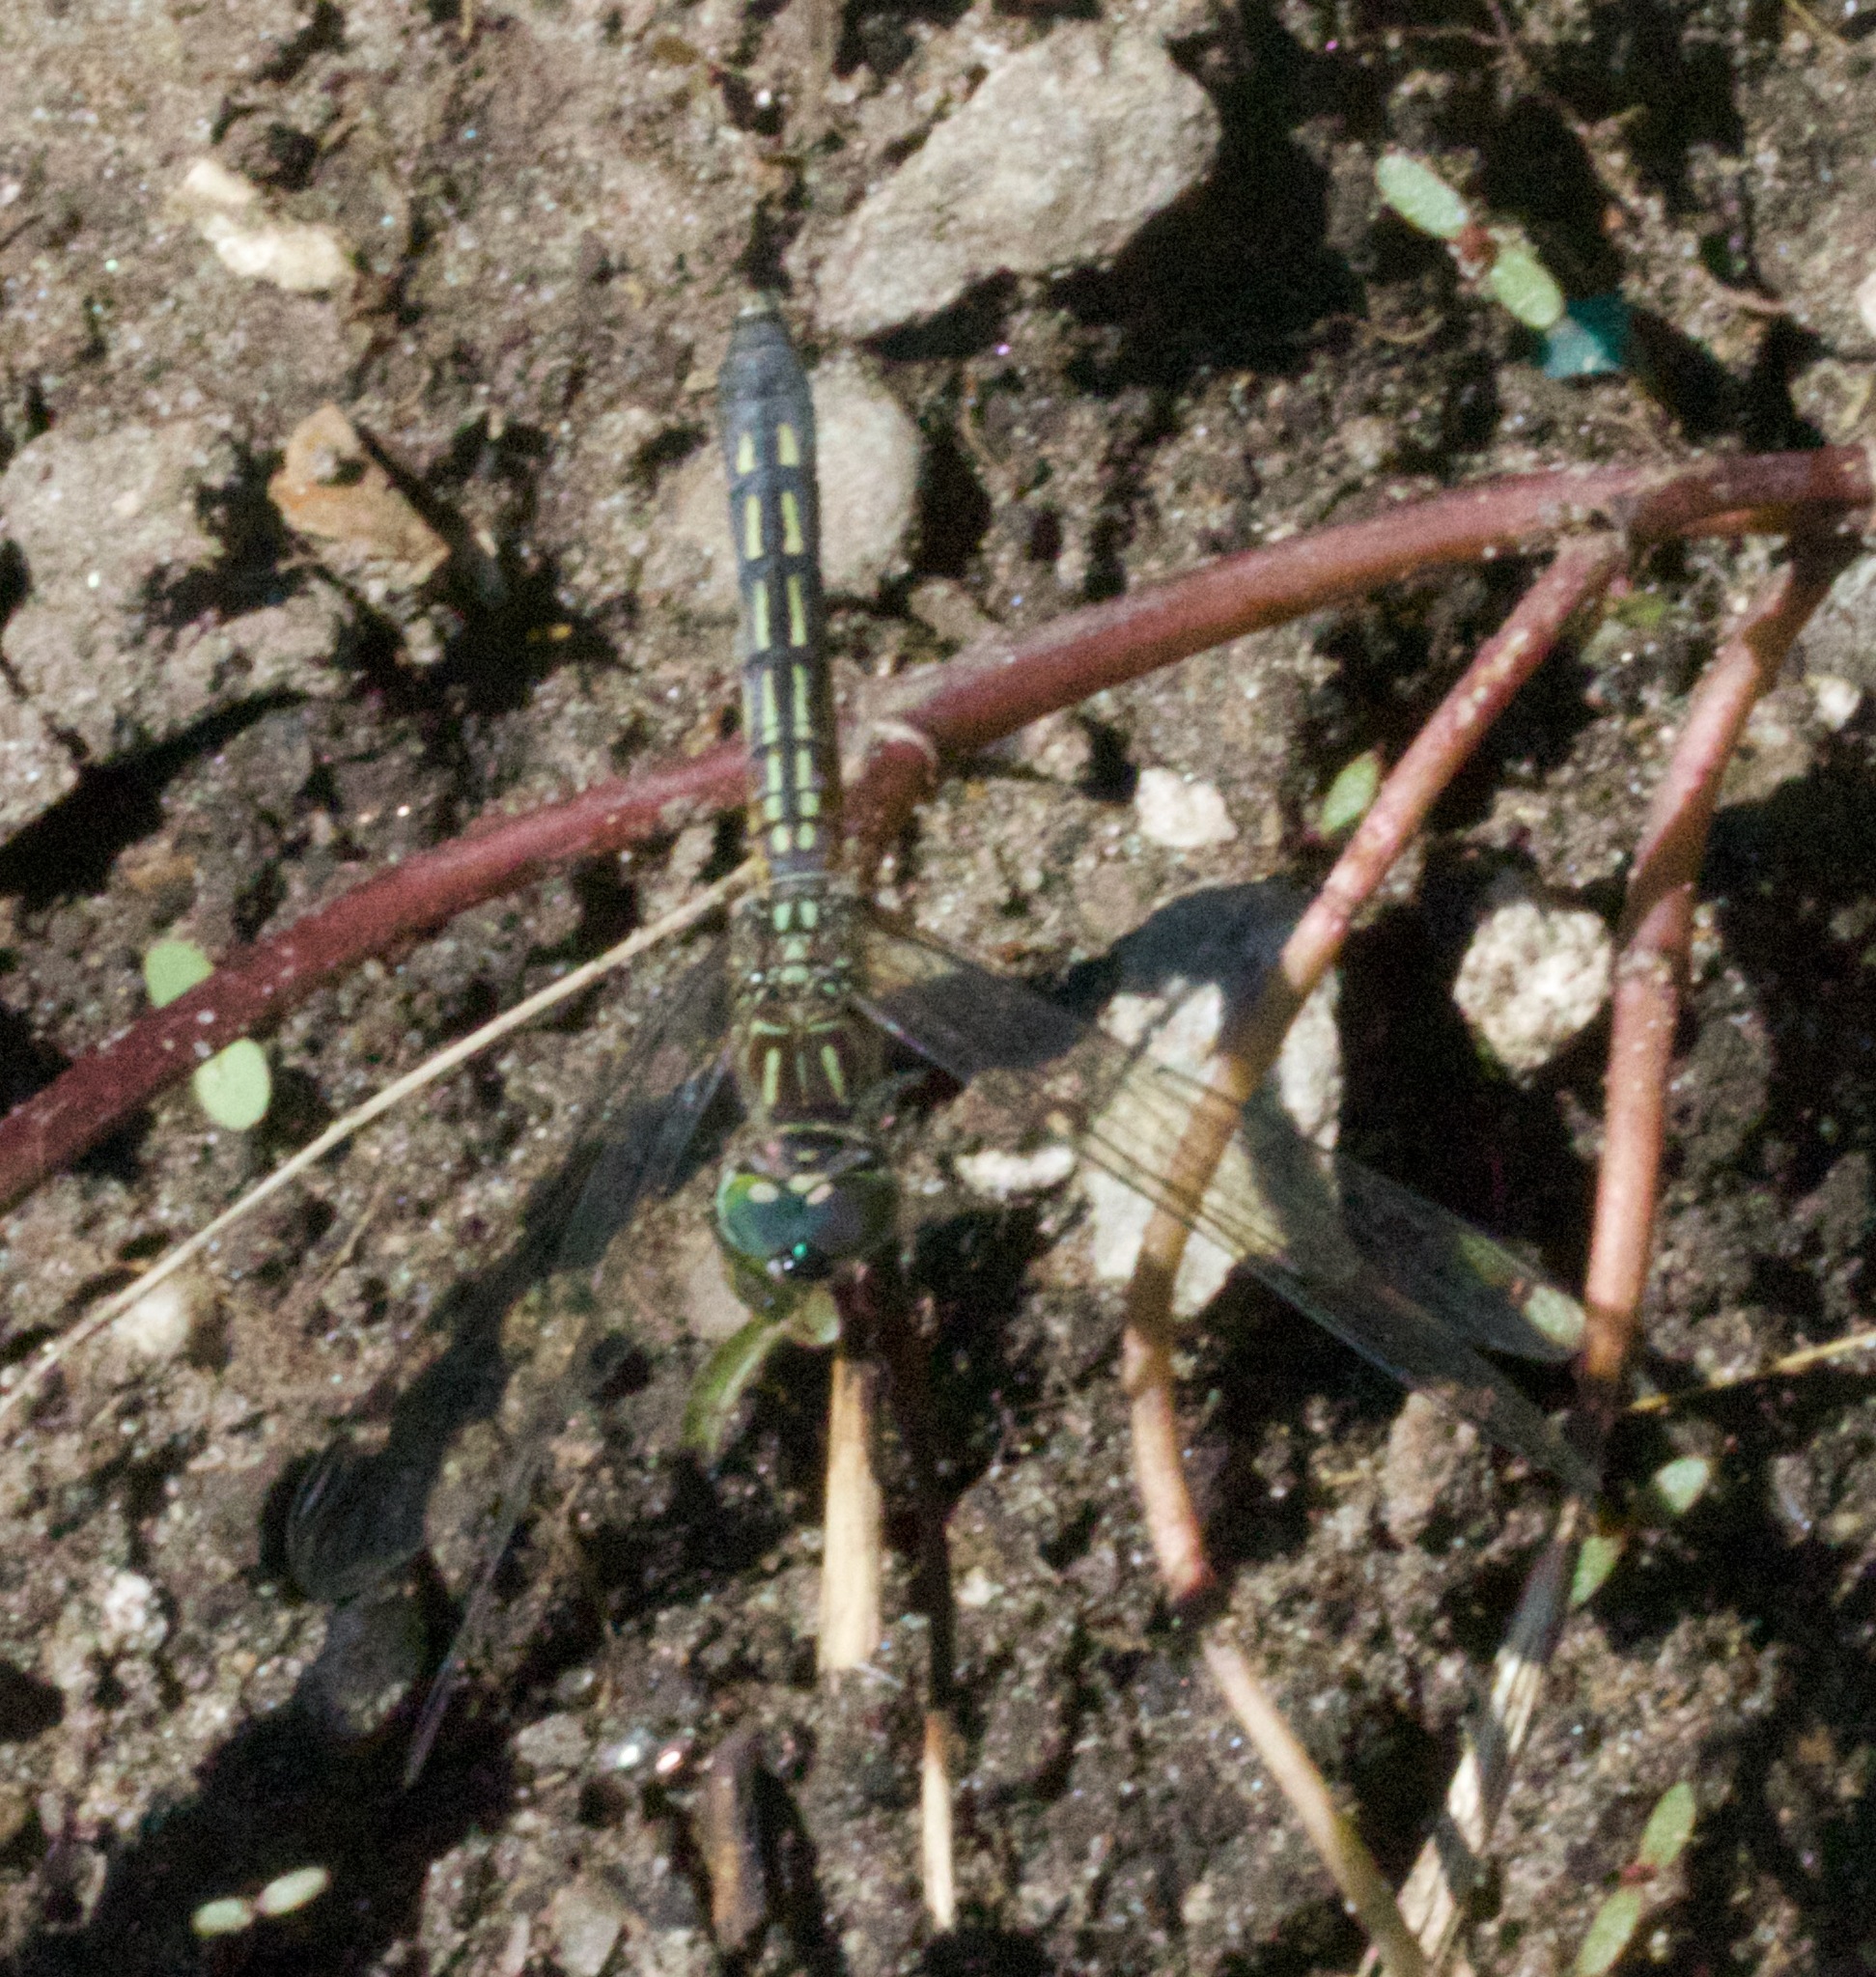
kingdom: Animalia
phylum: Arthropoda
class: Insecta
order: Odonata
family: Libellulidae
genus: Pachydiplax
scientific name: Pachydiplax longipennis
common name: Blue dasher
